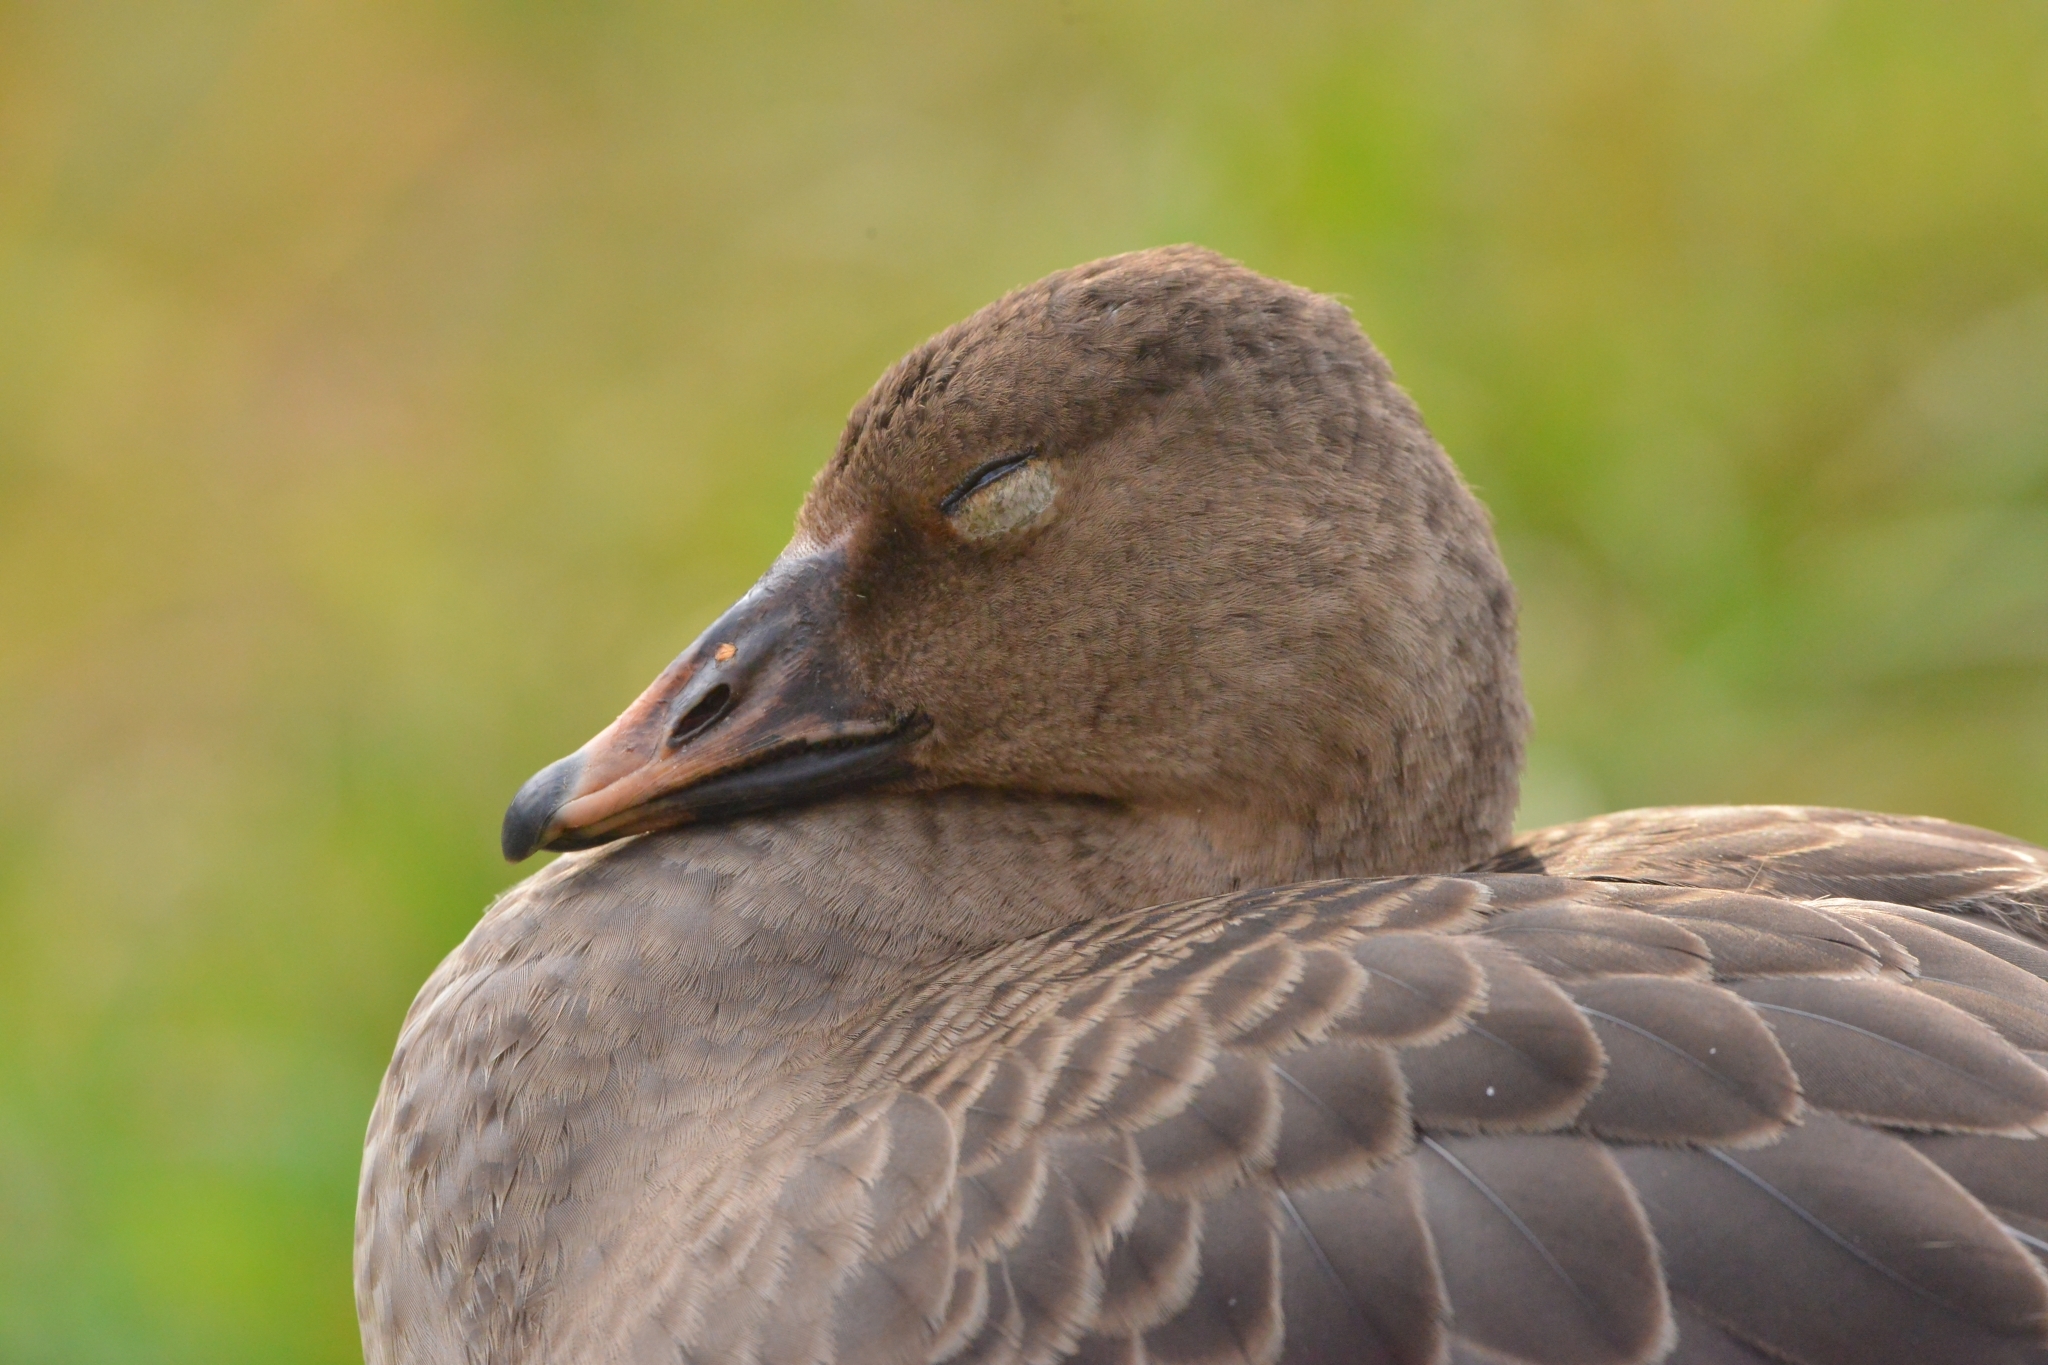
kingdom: Animalia
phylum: Chordata
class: Aves
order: Anseriformes
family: Anatidae
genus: Anser
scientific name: Anser fabalis
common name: Bean goose
